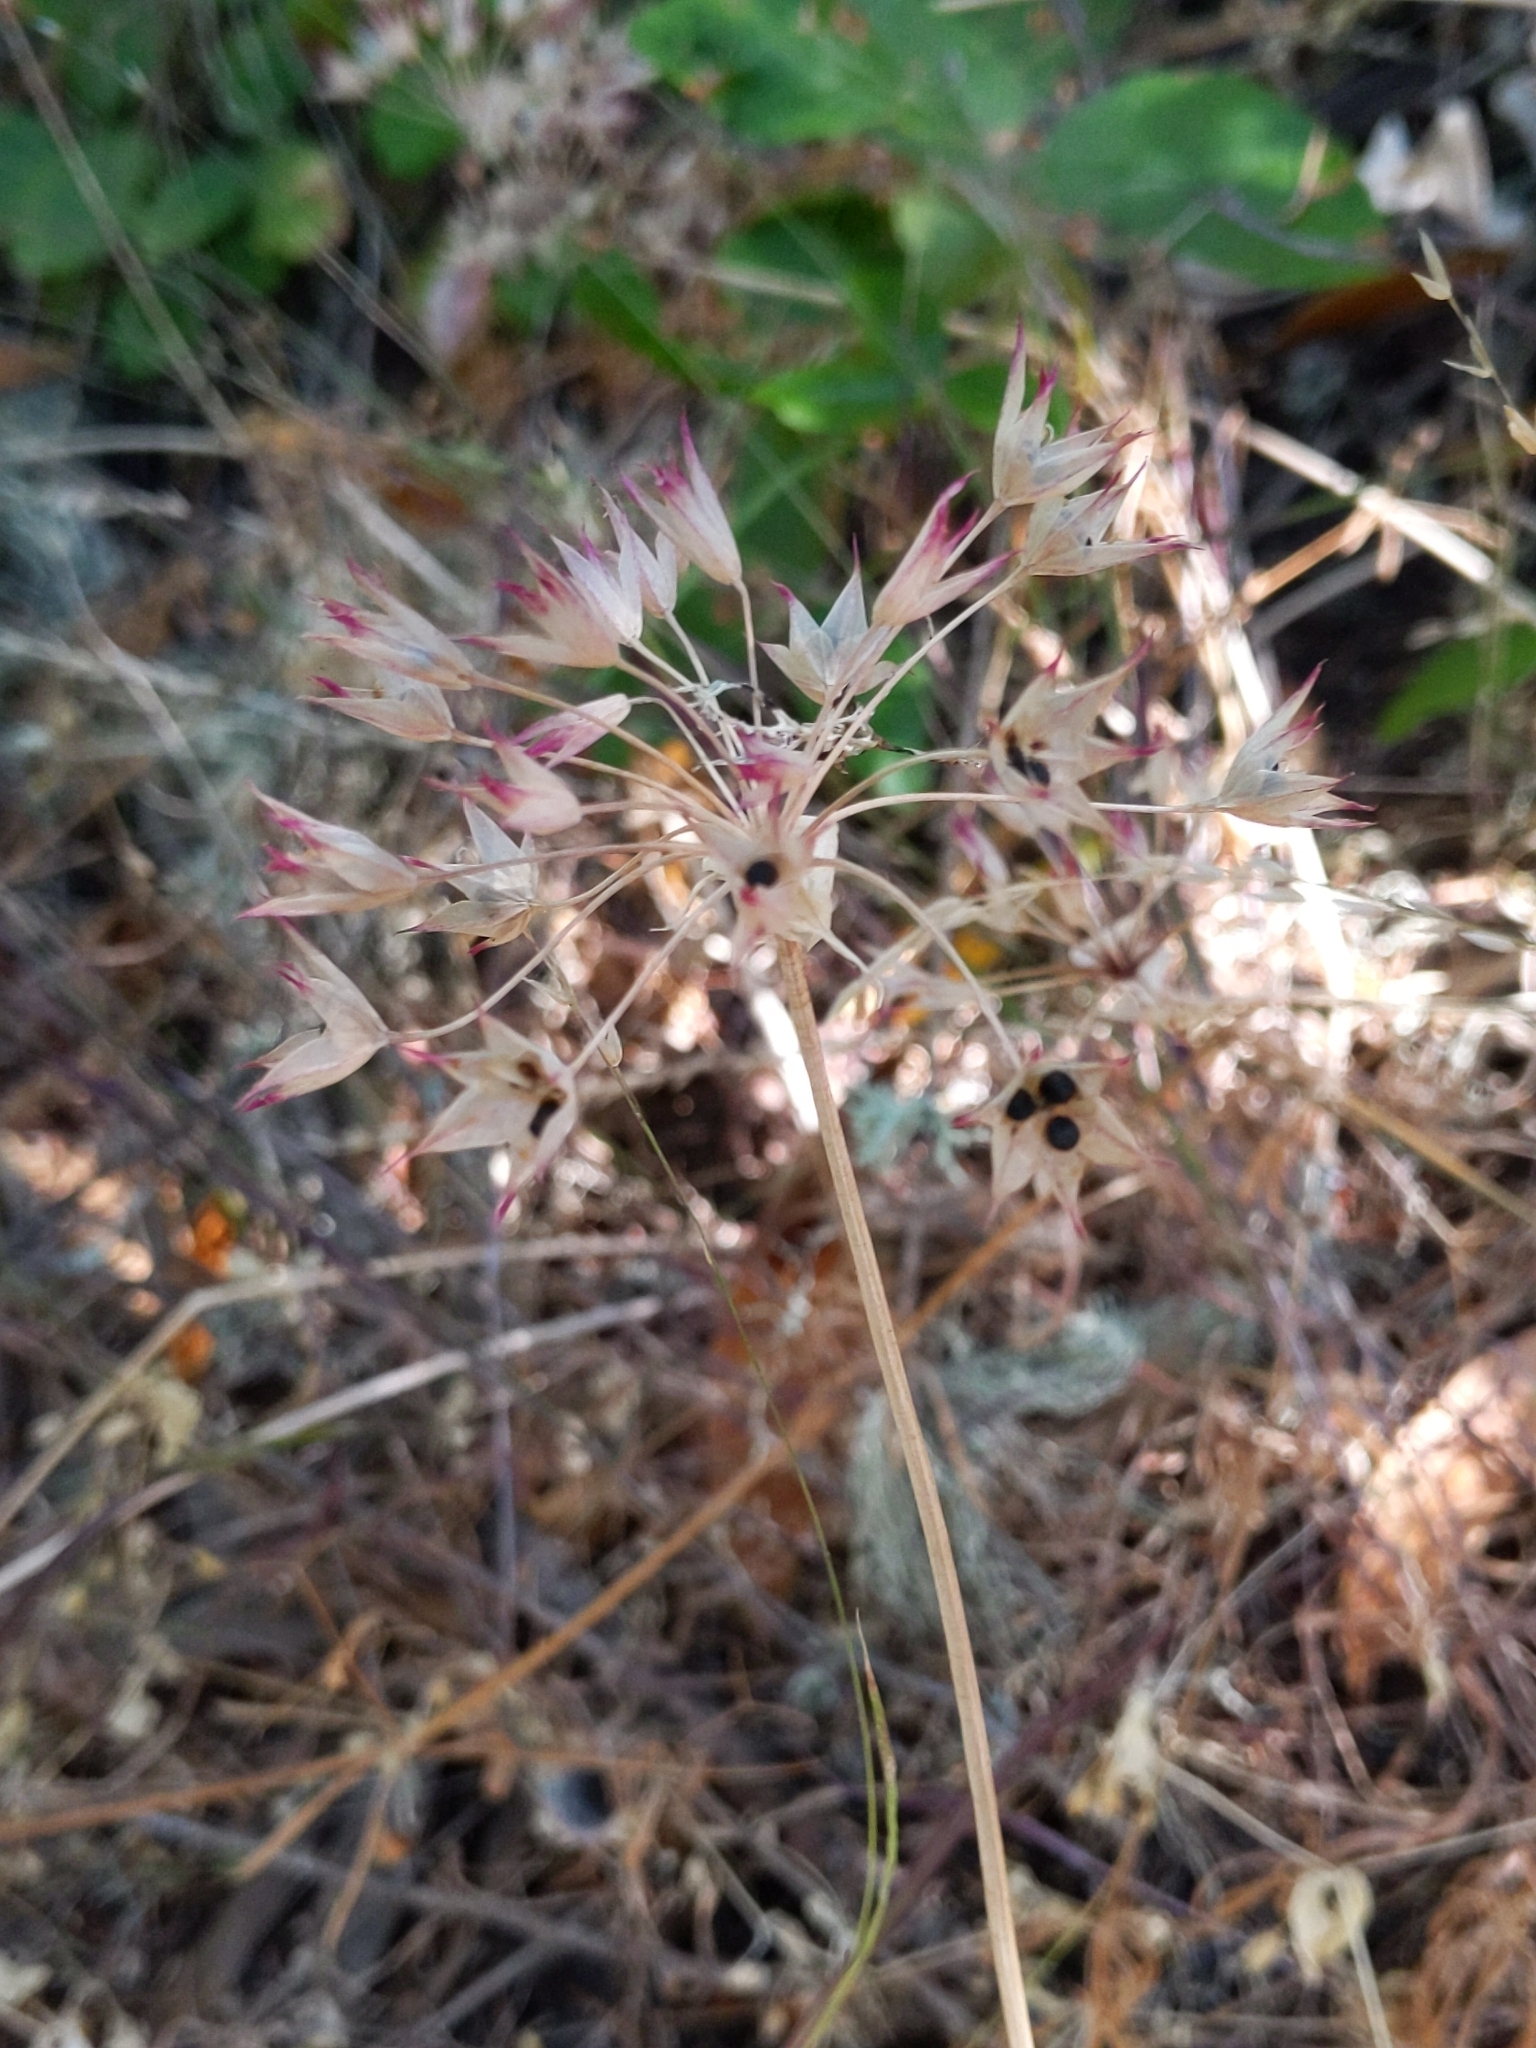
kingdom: Plantae
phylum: Tracheophyta
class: Liliopsida
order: Asparagales
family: Amaryllidaceae
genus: Allium
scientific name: Allium peninsulare
